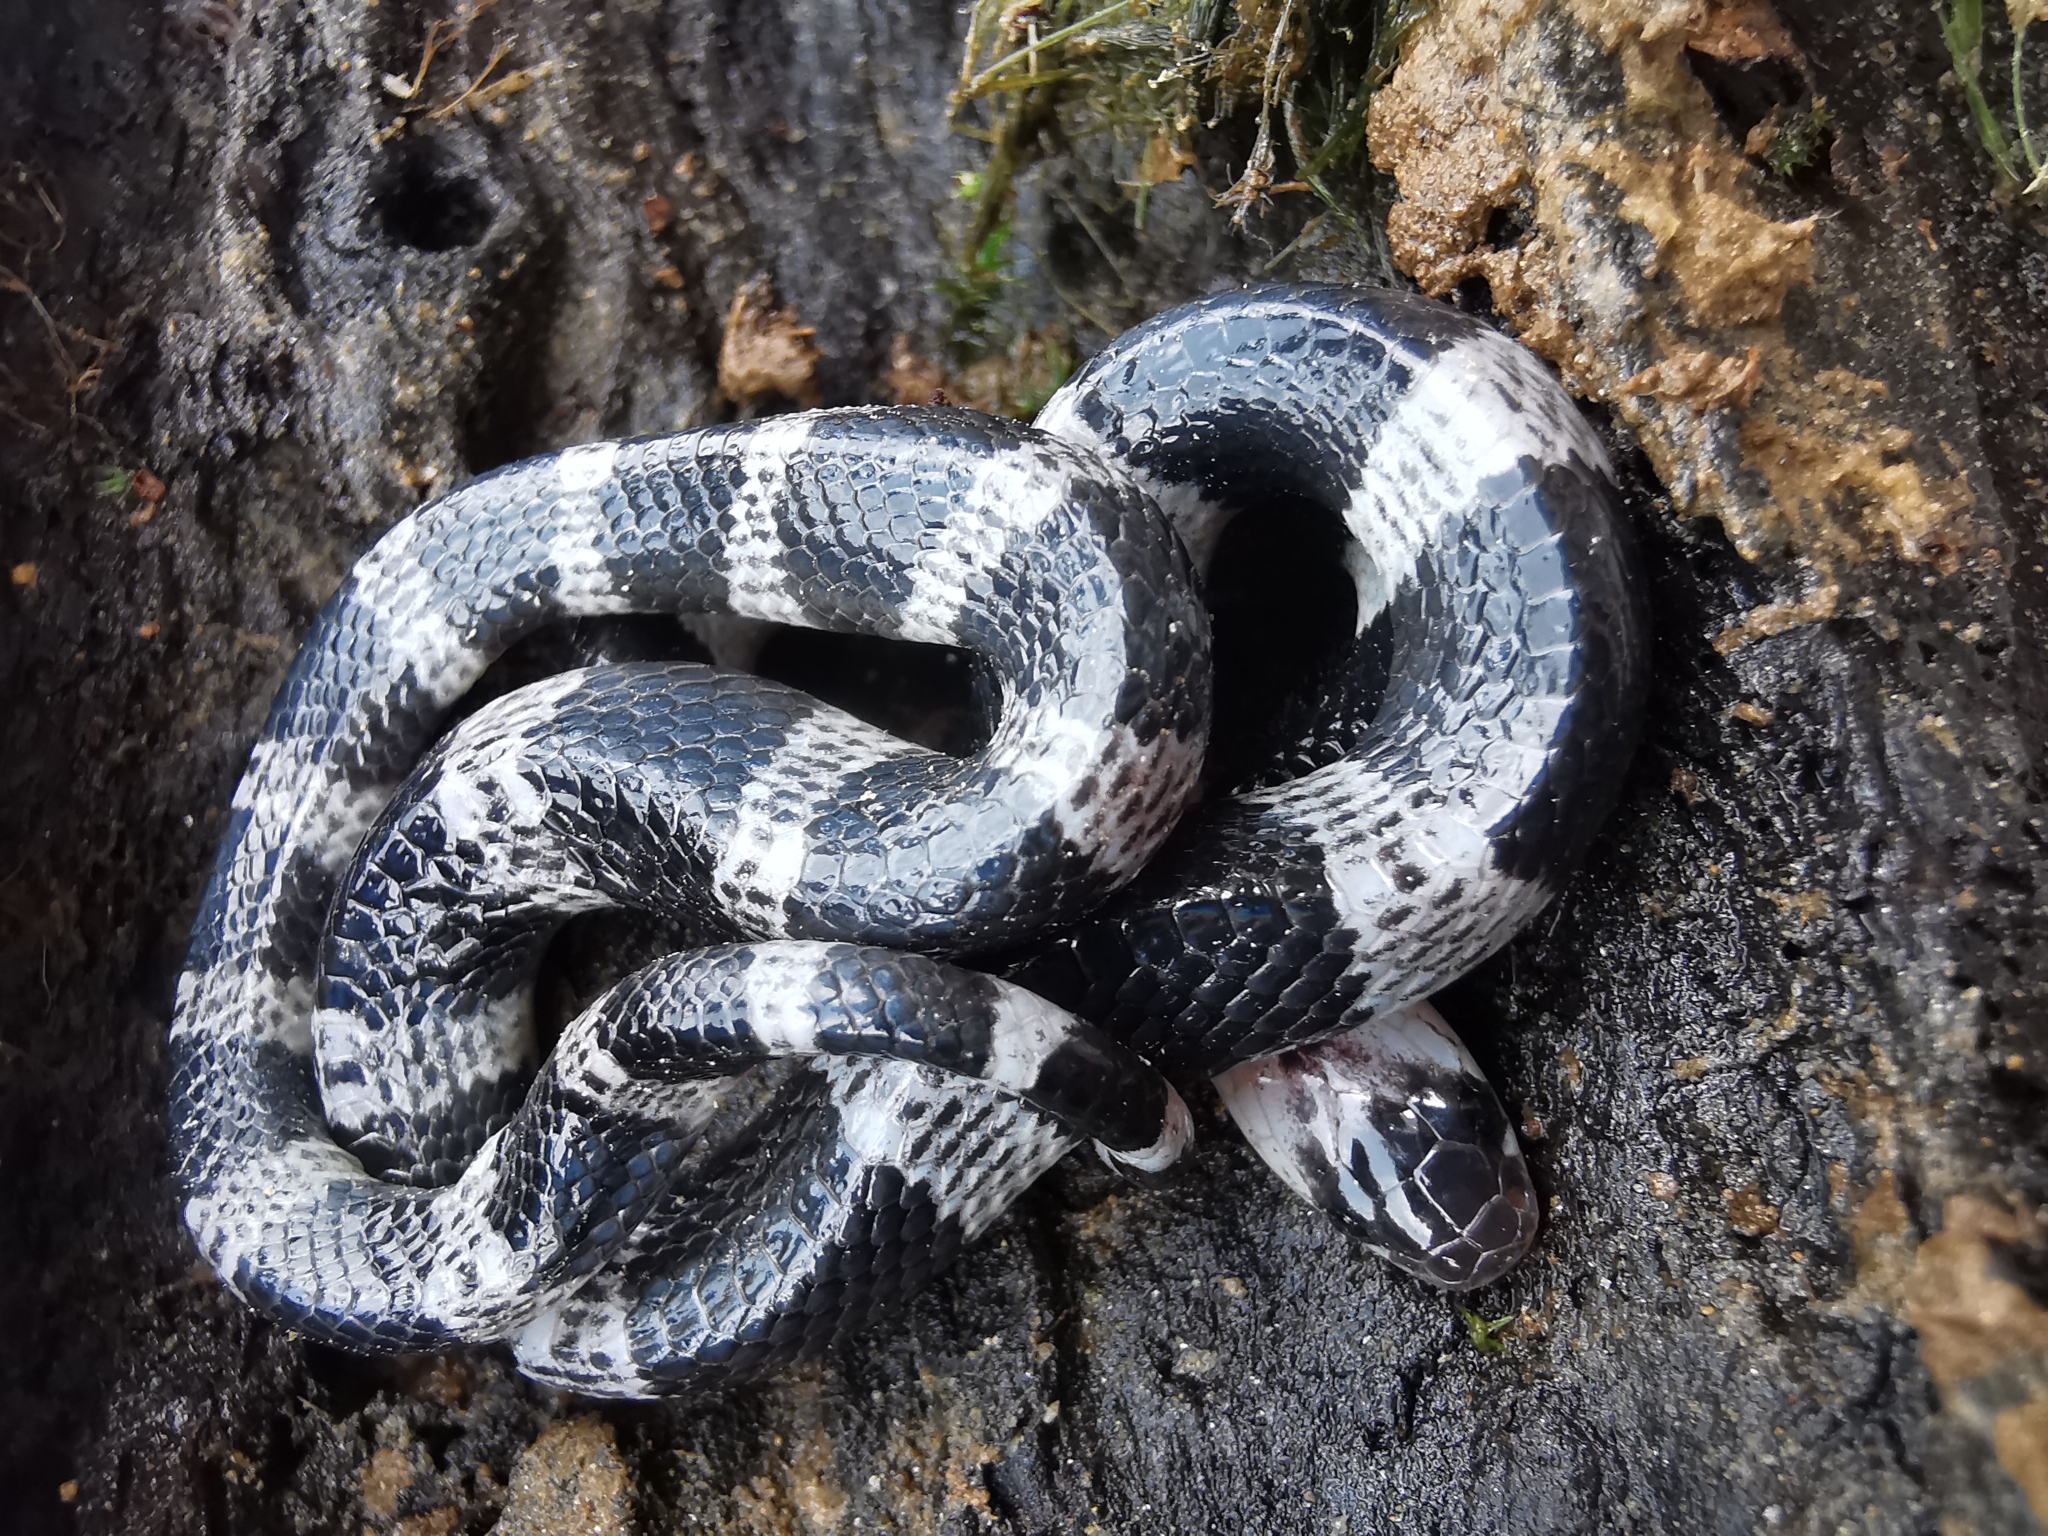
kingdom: Animalia
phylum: Chordata
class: Squamata
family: Elapidae
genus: Bungarus
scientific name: Bungarus candidus
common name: Blue krait/malayan krait
